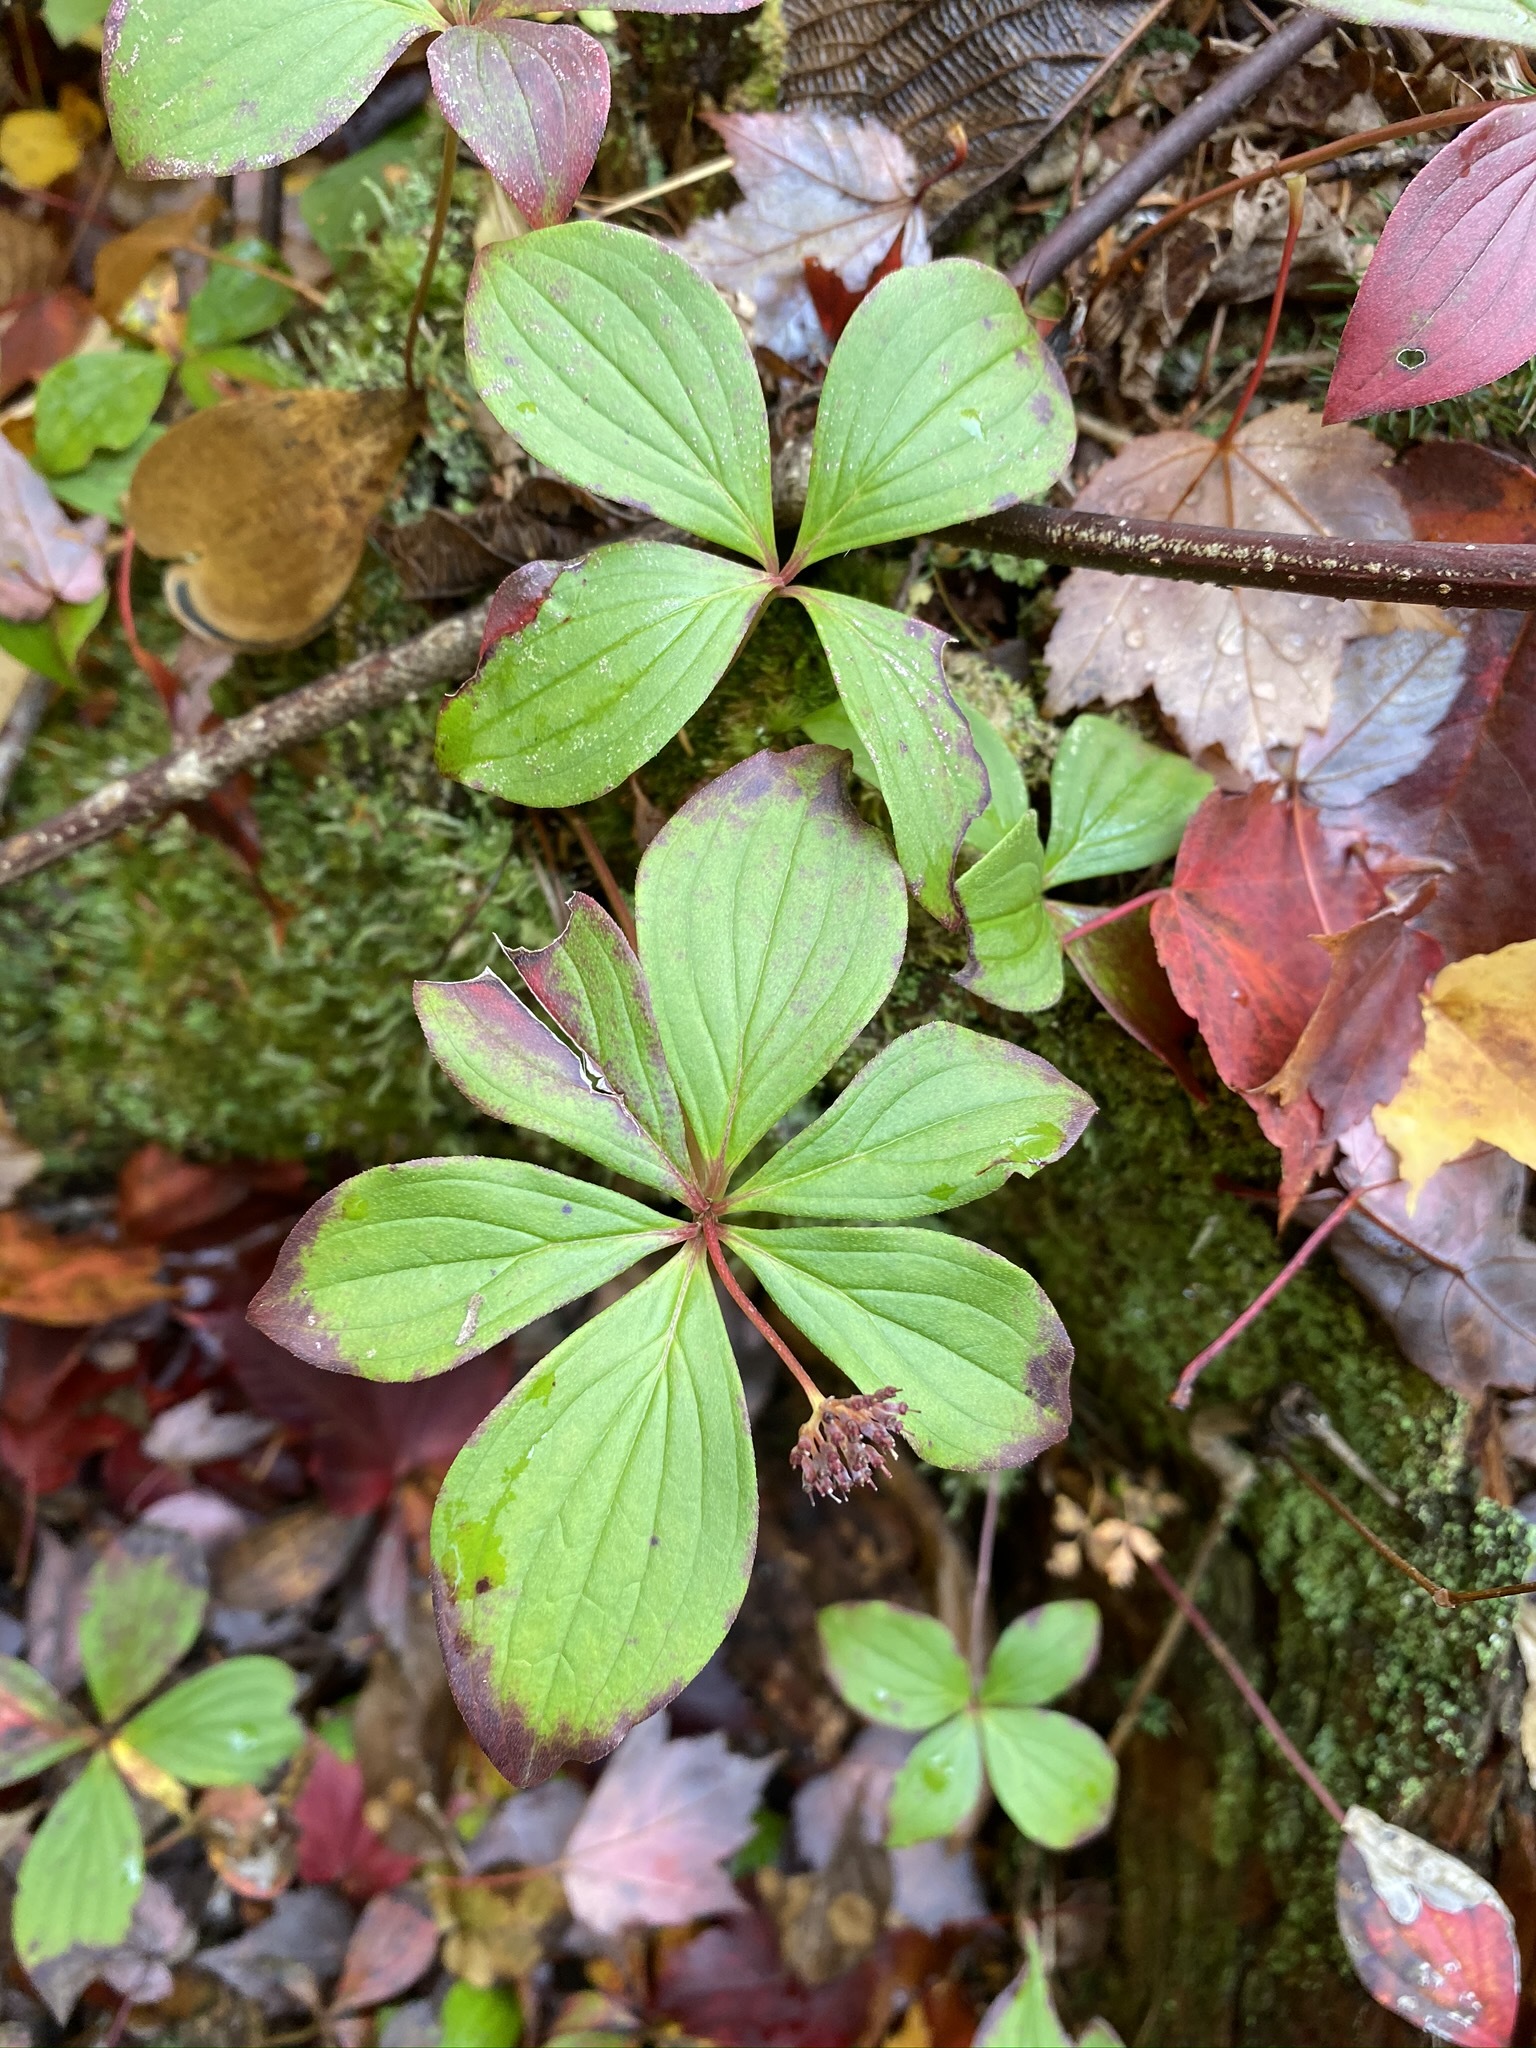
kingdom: Plantae
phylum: Tracheophyta
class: Magnoliopsida
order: Cornales
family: Cornaceae
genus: Cornus
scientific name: Cornus canadensis
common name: Creeping dogwood
